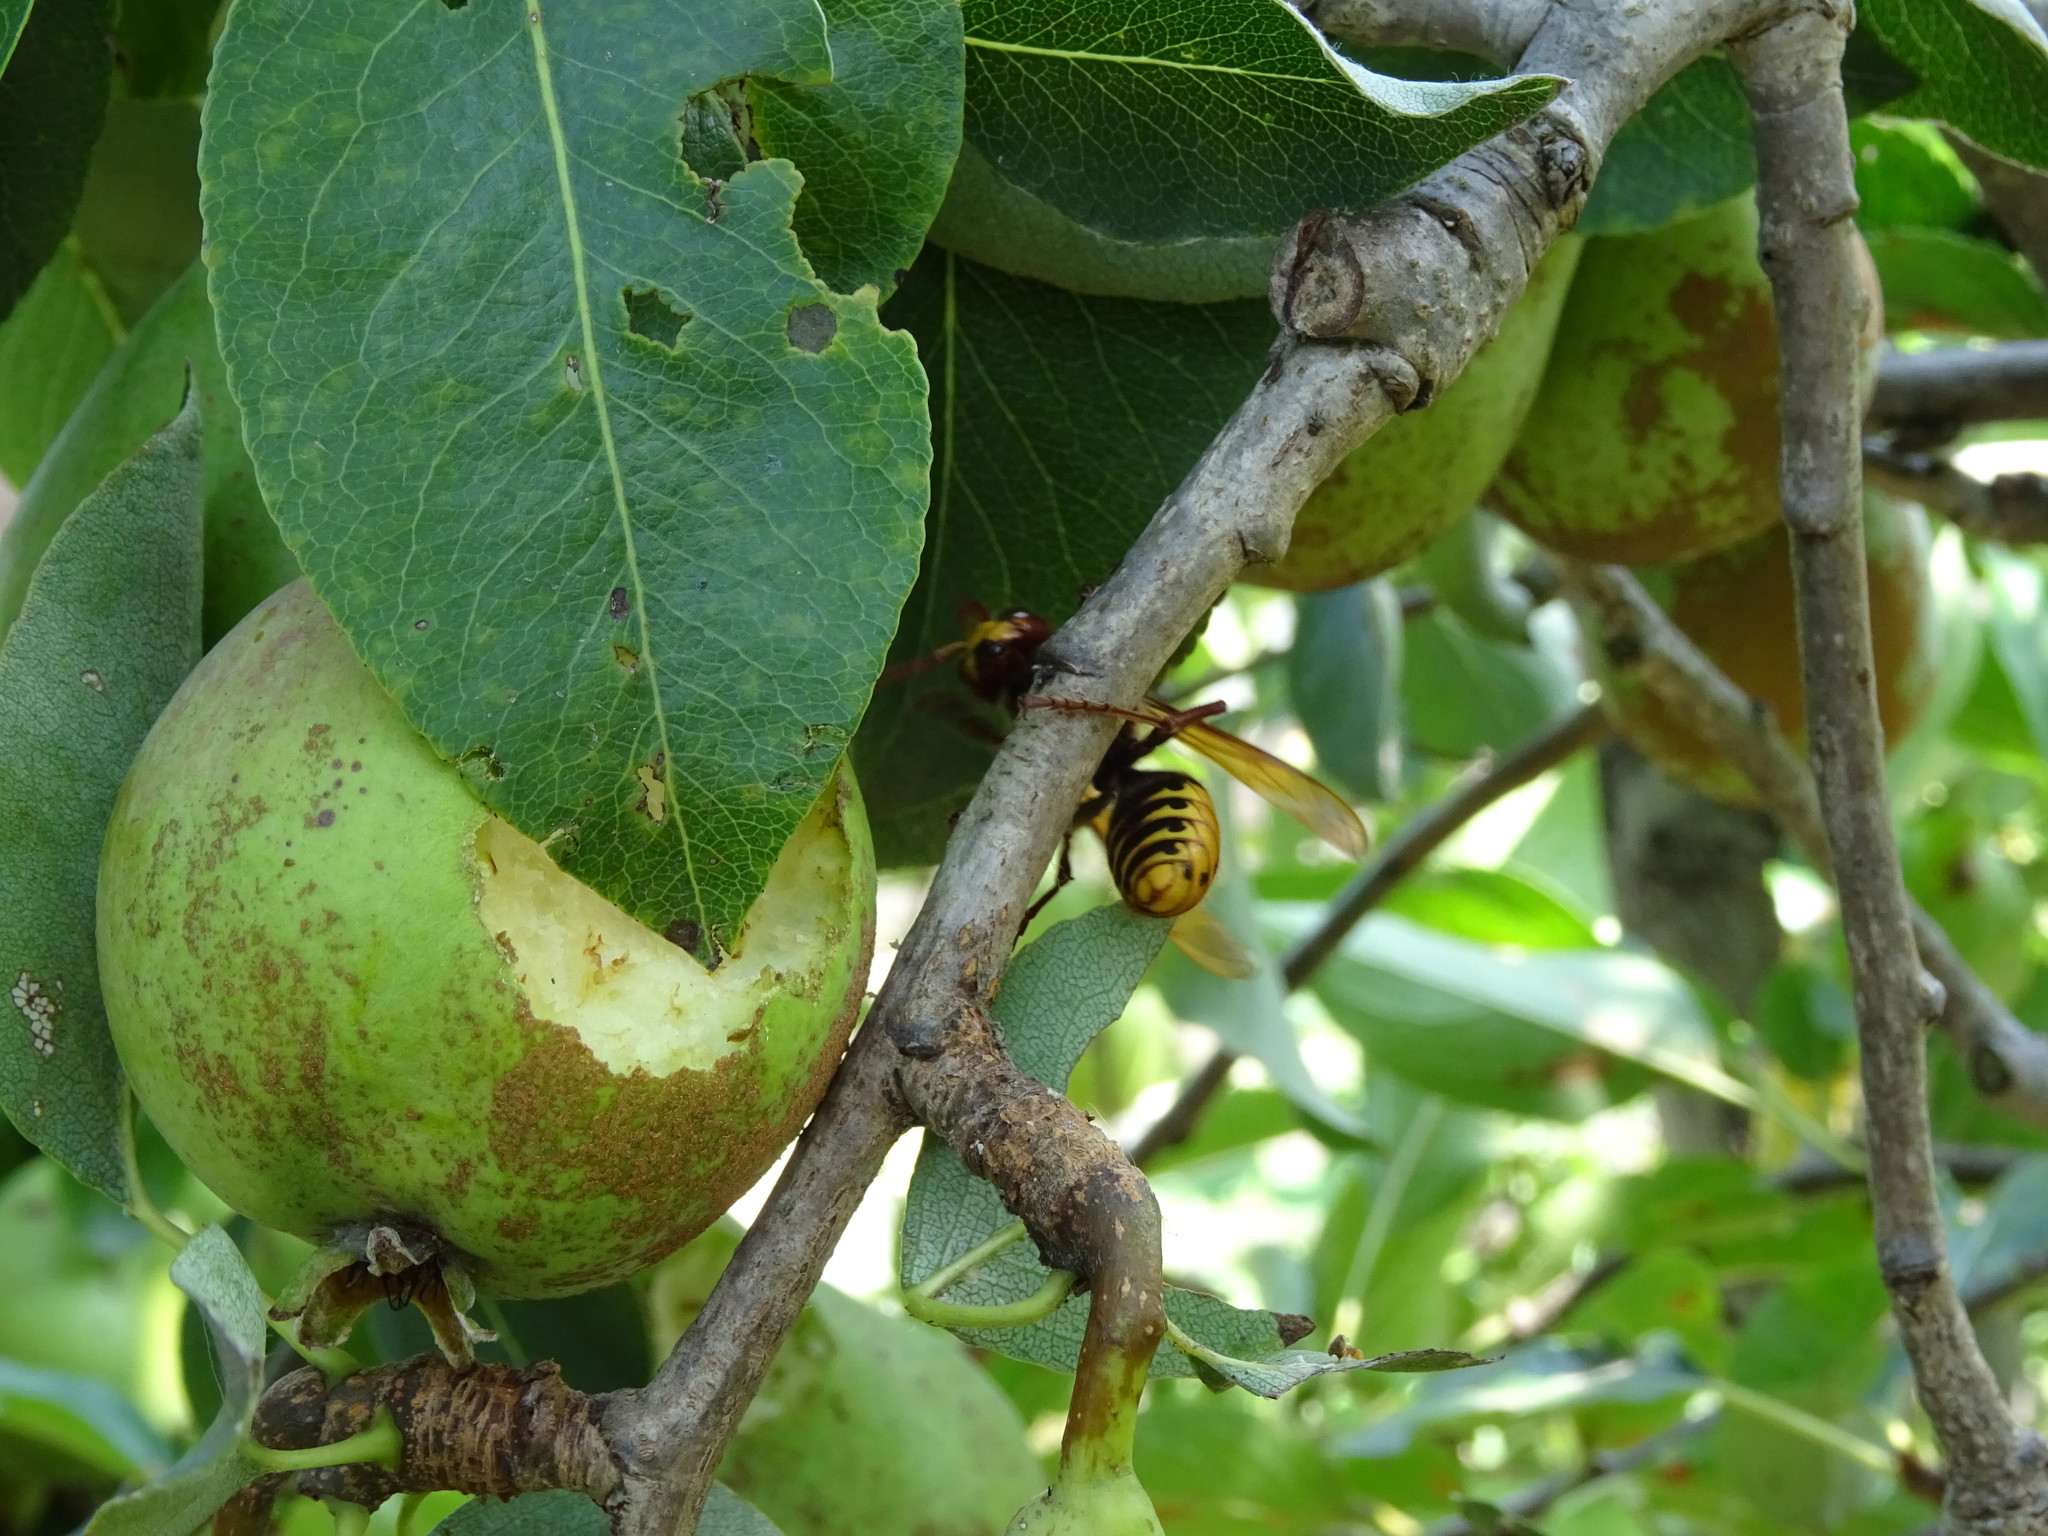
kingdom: Animalia
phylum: Arthropoda
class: Insecta
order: Hymenoptera
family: Vespidae
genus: Vespa
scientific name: Vespa crabro
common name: Hornet
